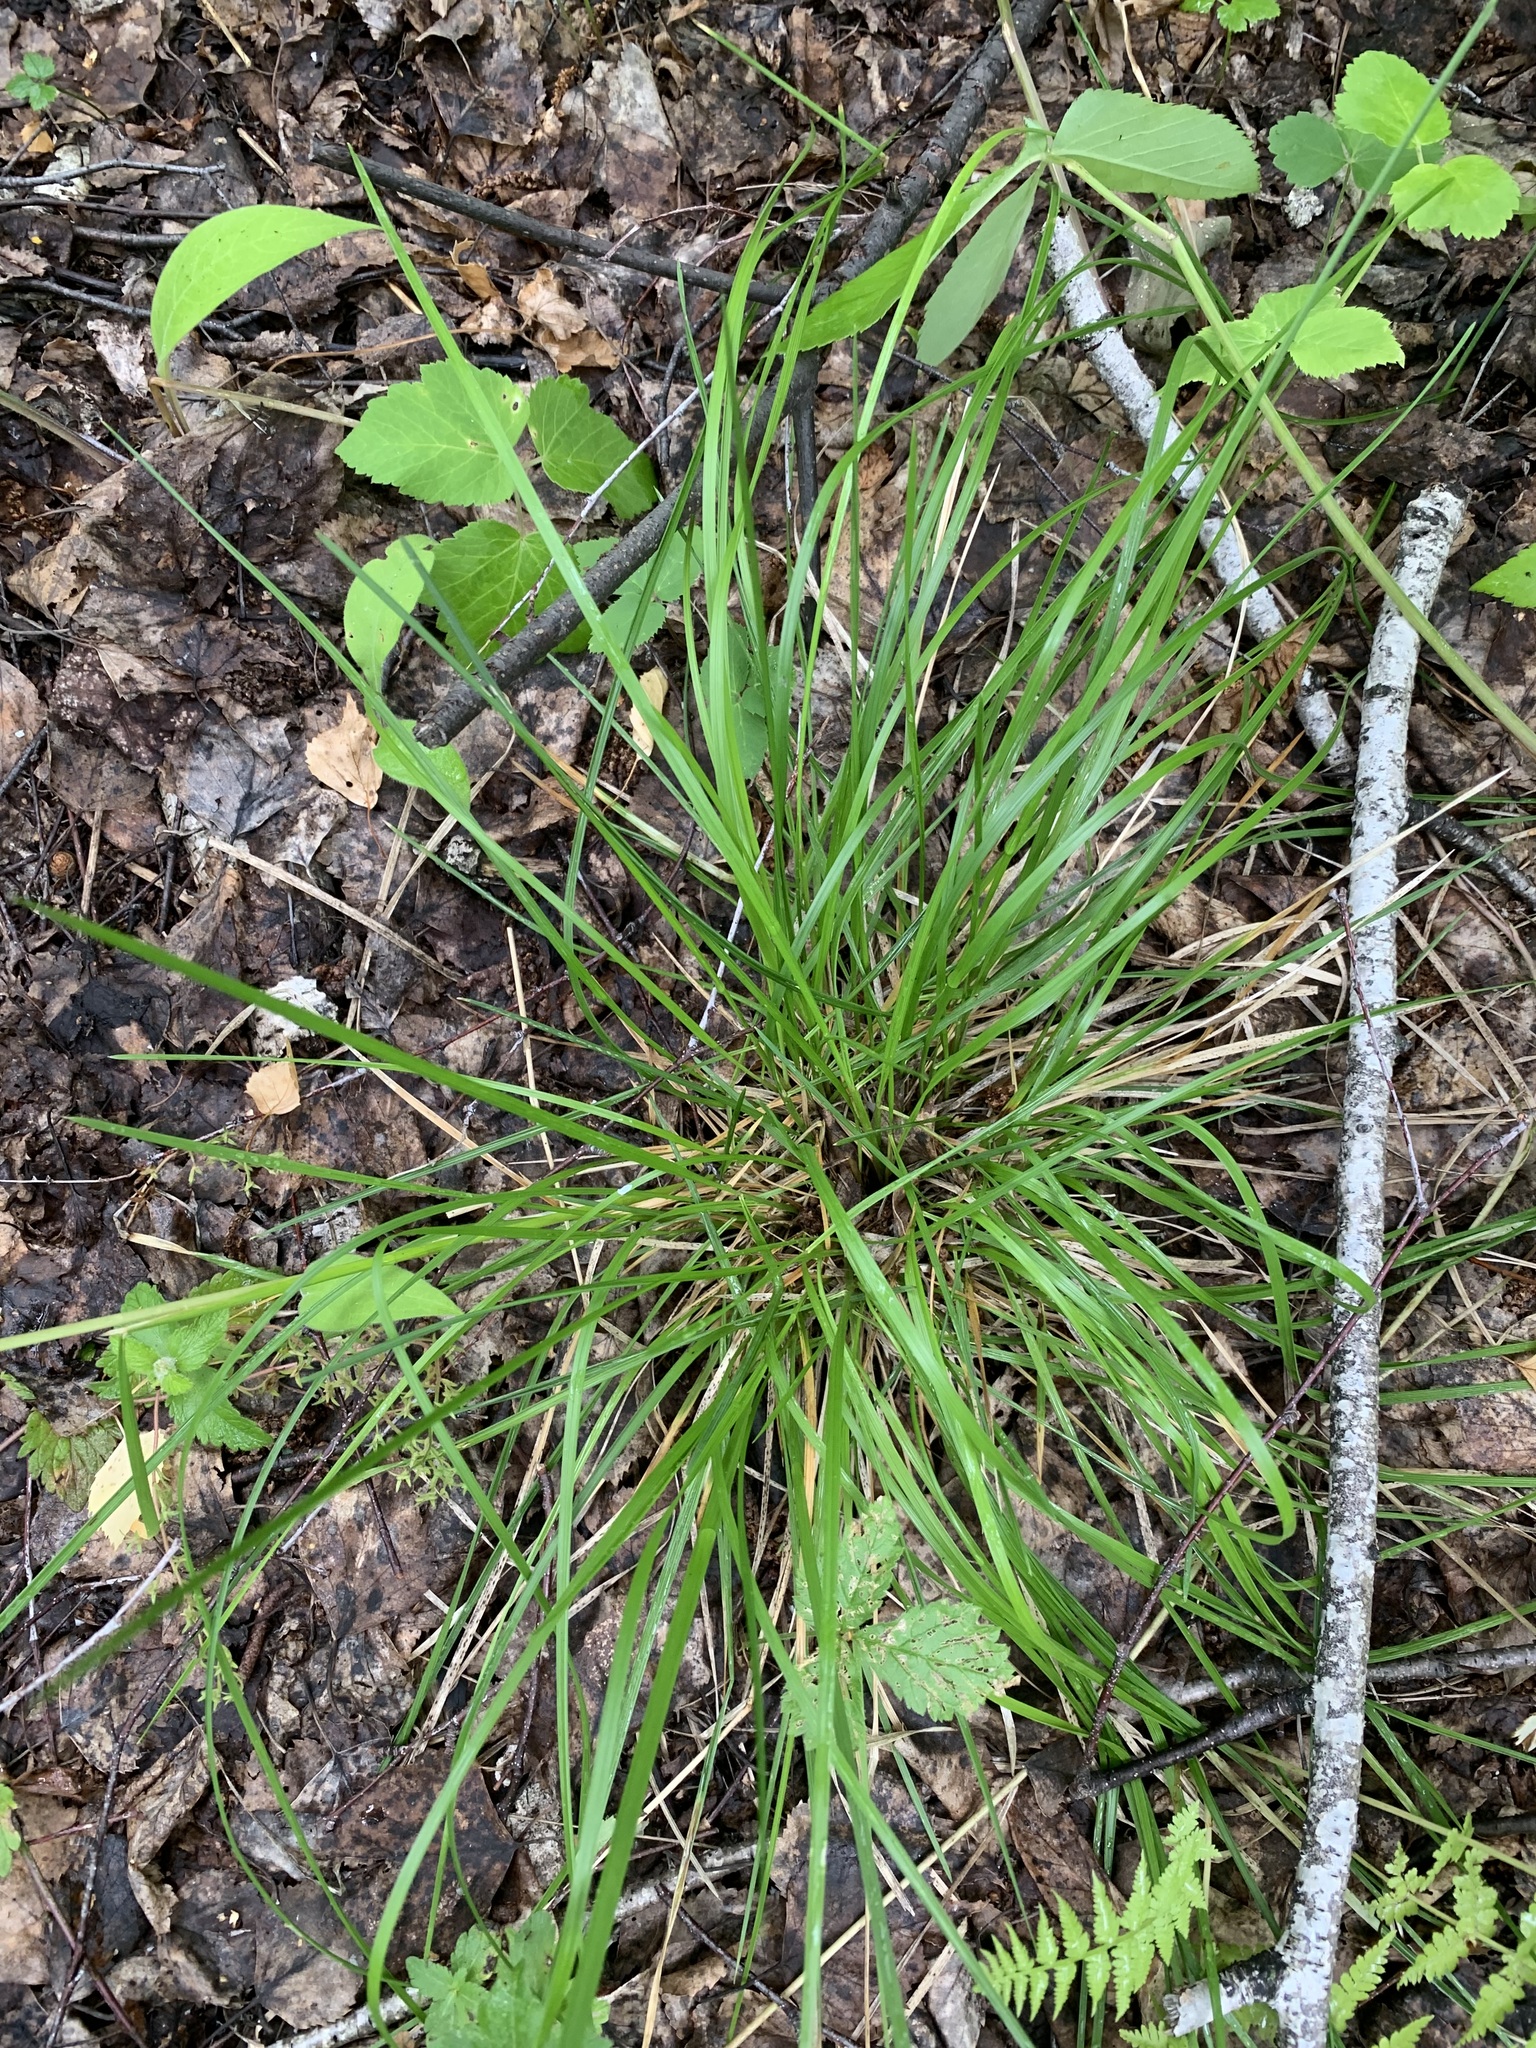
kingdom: Plantae
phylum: Tracheophyta
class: Liliopsida
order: Poales
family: Poaceae
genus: Deschampsia
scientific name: Deschampsia cespitosa
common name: Tufted hair-grass
